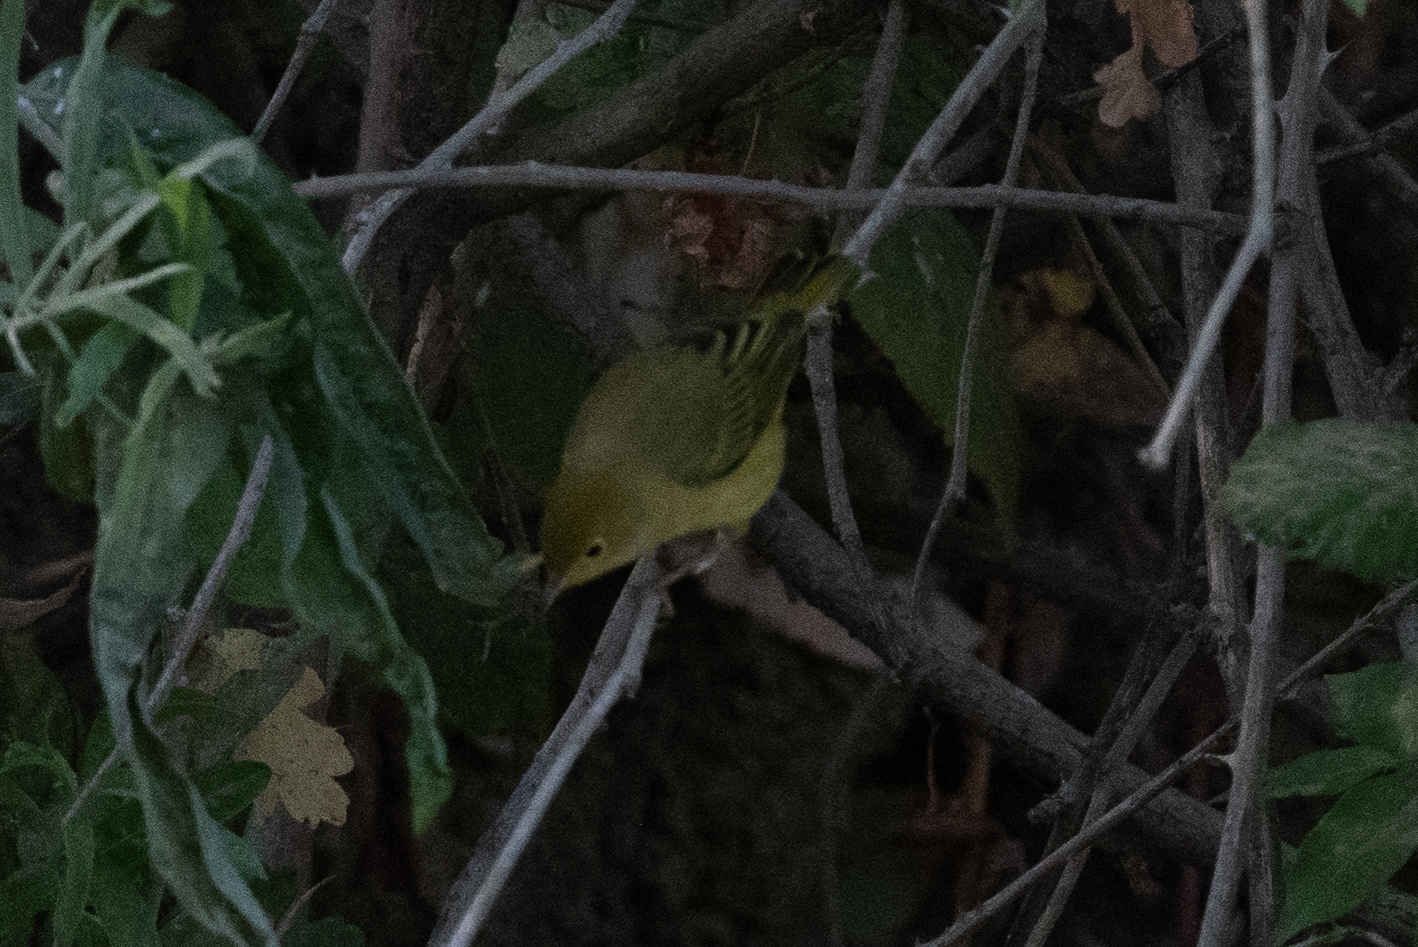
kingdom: Animalia
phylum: Chordata
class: Aves
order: Passeriformes
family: Parulidae
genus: Setophaga
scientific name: Setophaga petechia
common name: Yellow warbler
